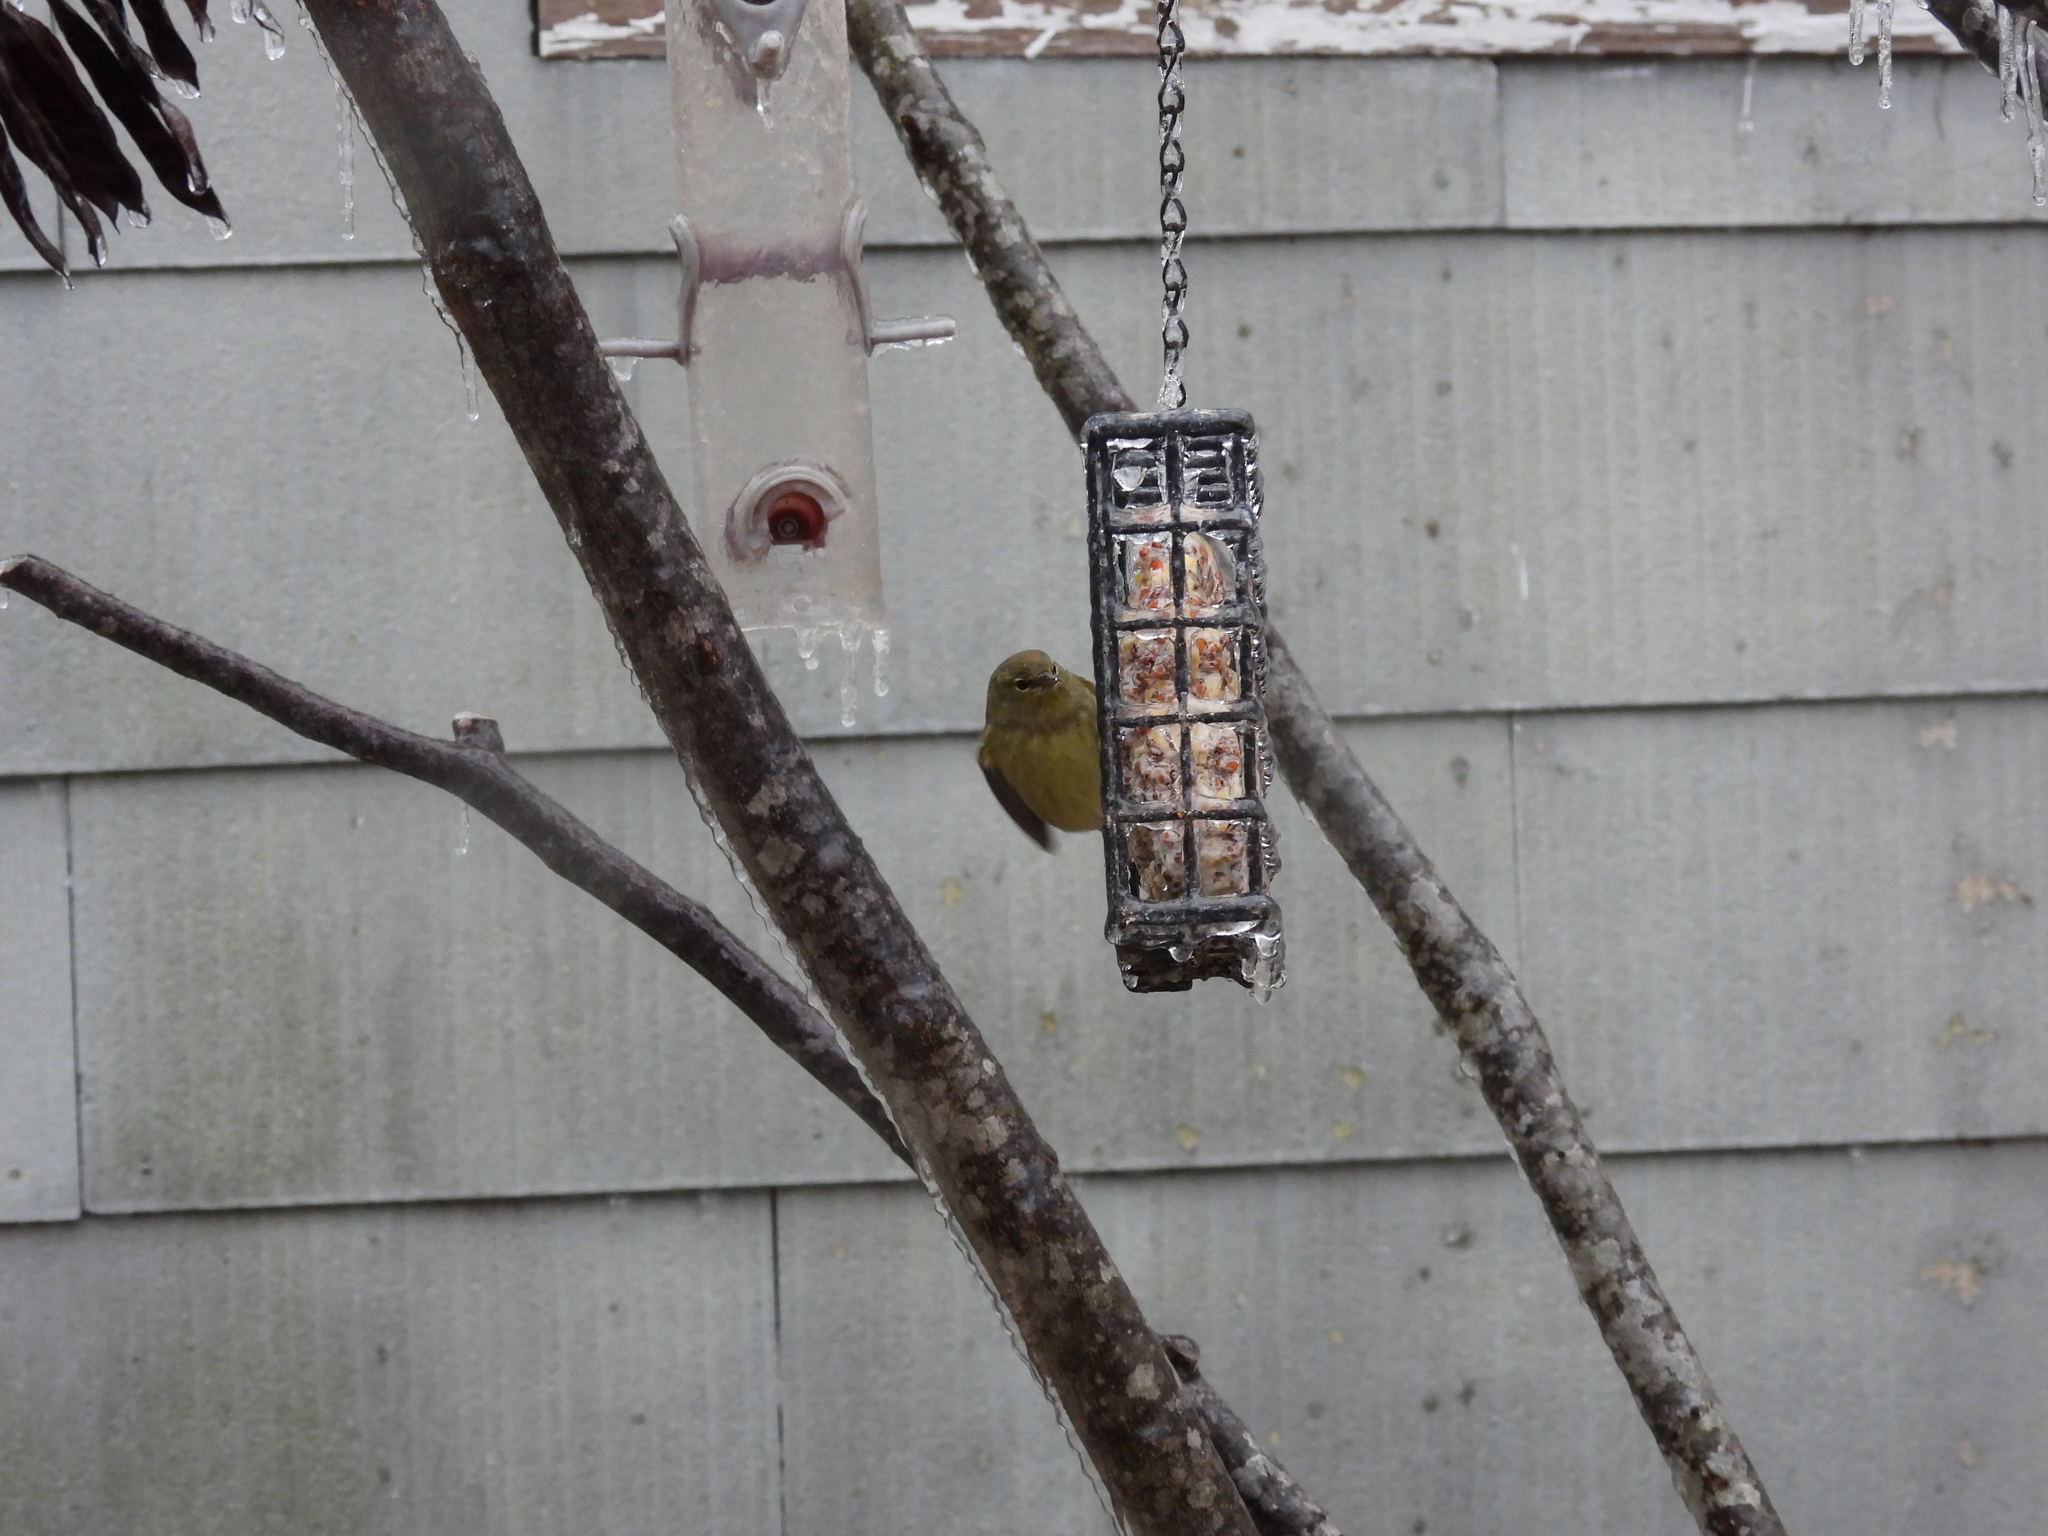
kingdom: Animalia
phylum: Chordata
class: Aves
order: Passeriformes
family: Parulidae
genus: Leiothlypis
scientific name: Leiothlypis celata
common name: Orange-crowned warbler
